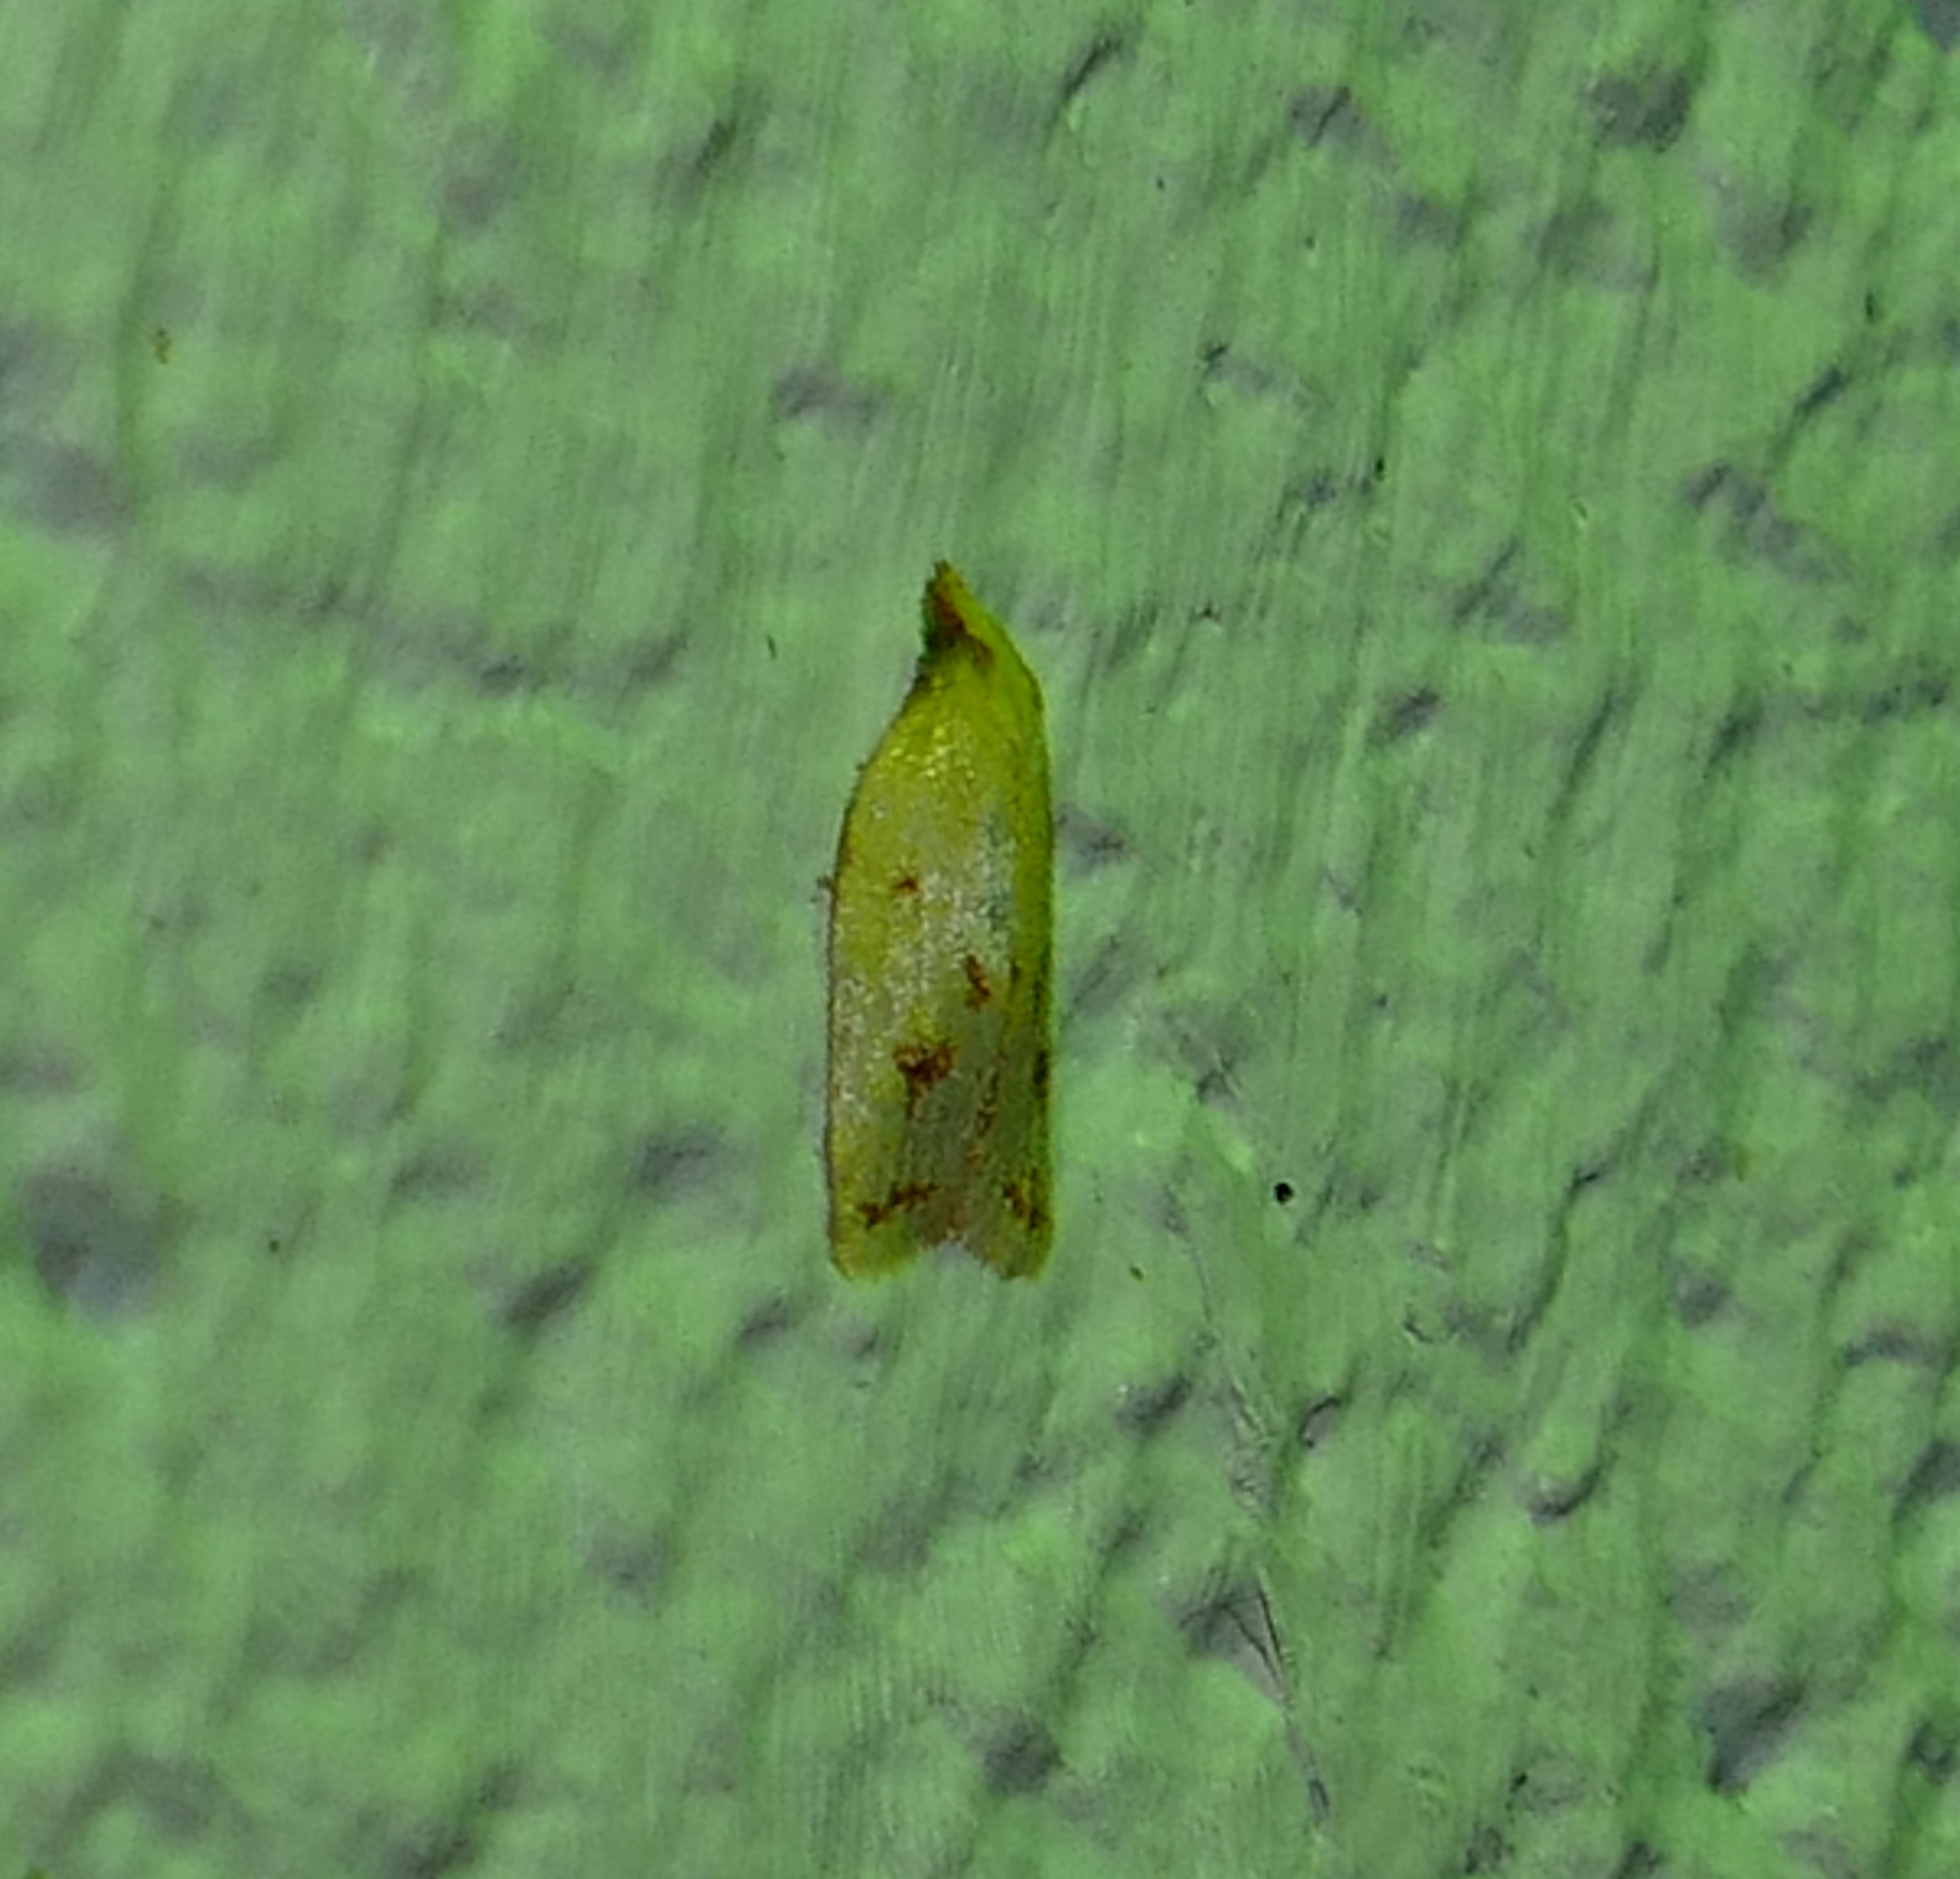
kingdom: Animalia
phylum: Arthropoda
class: Insecta
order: Lepidoptera
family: Tortricidae
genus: Sparganothis
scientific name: Sparganothis sulfureana
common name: Sparganothis fruitworm moth
